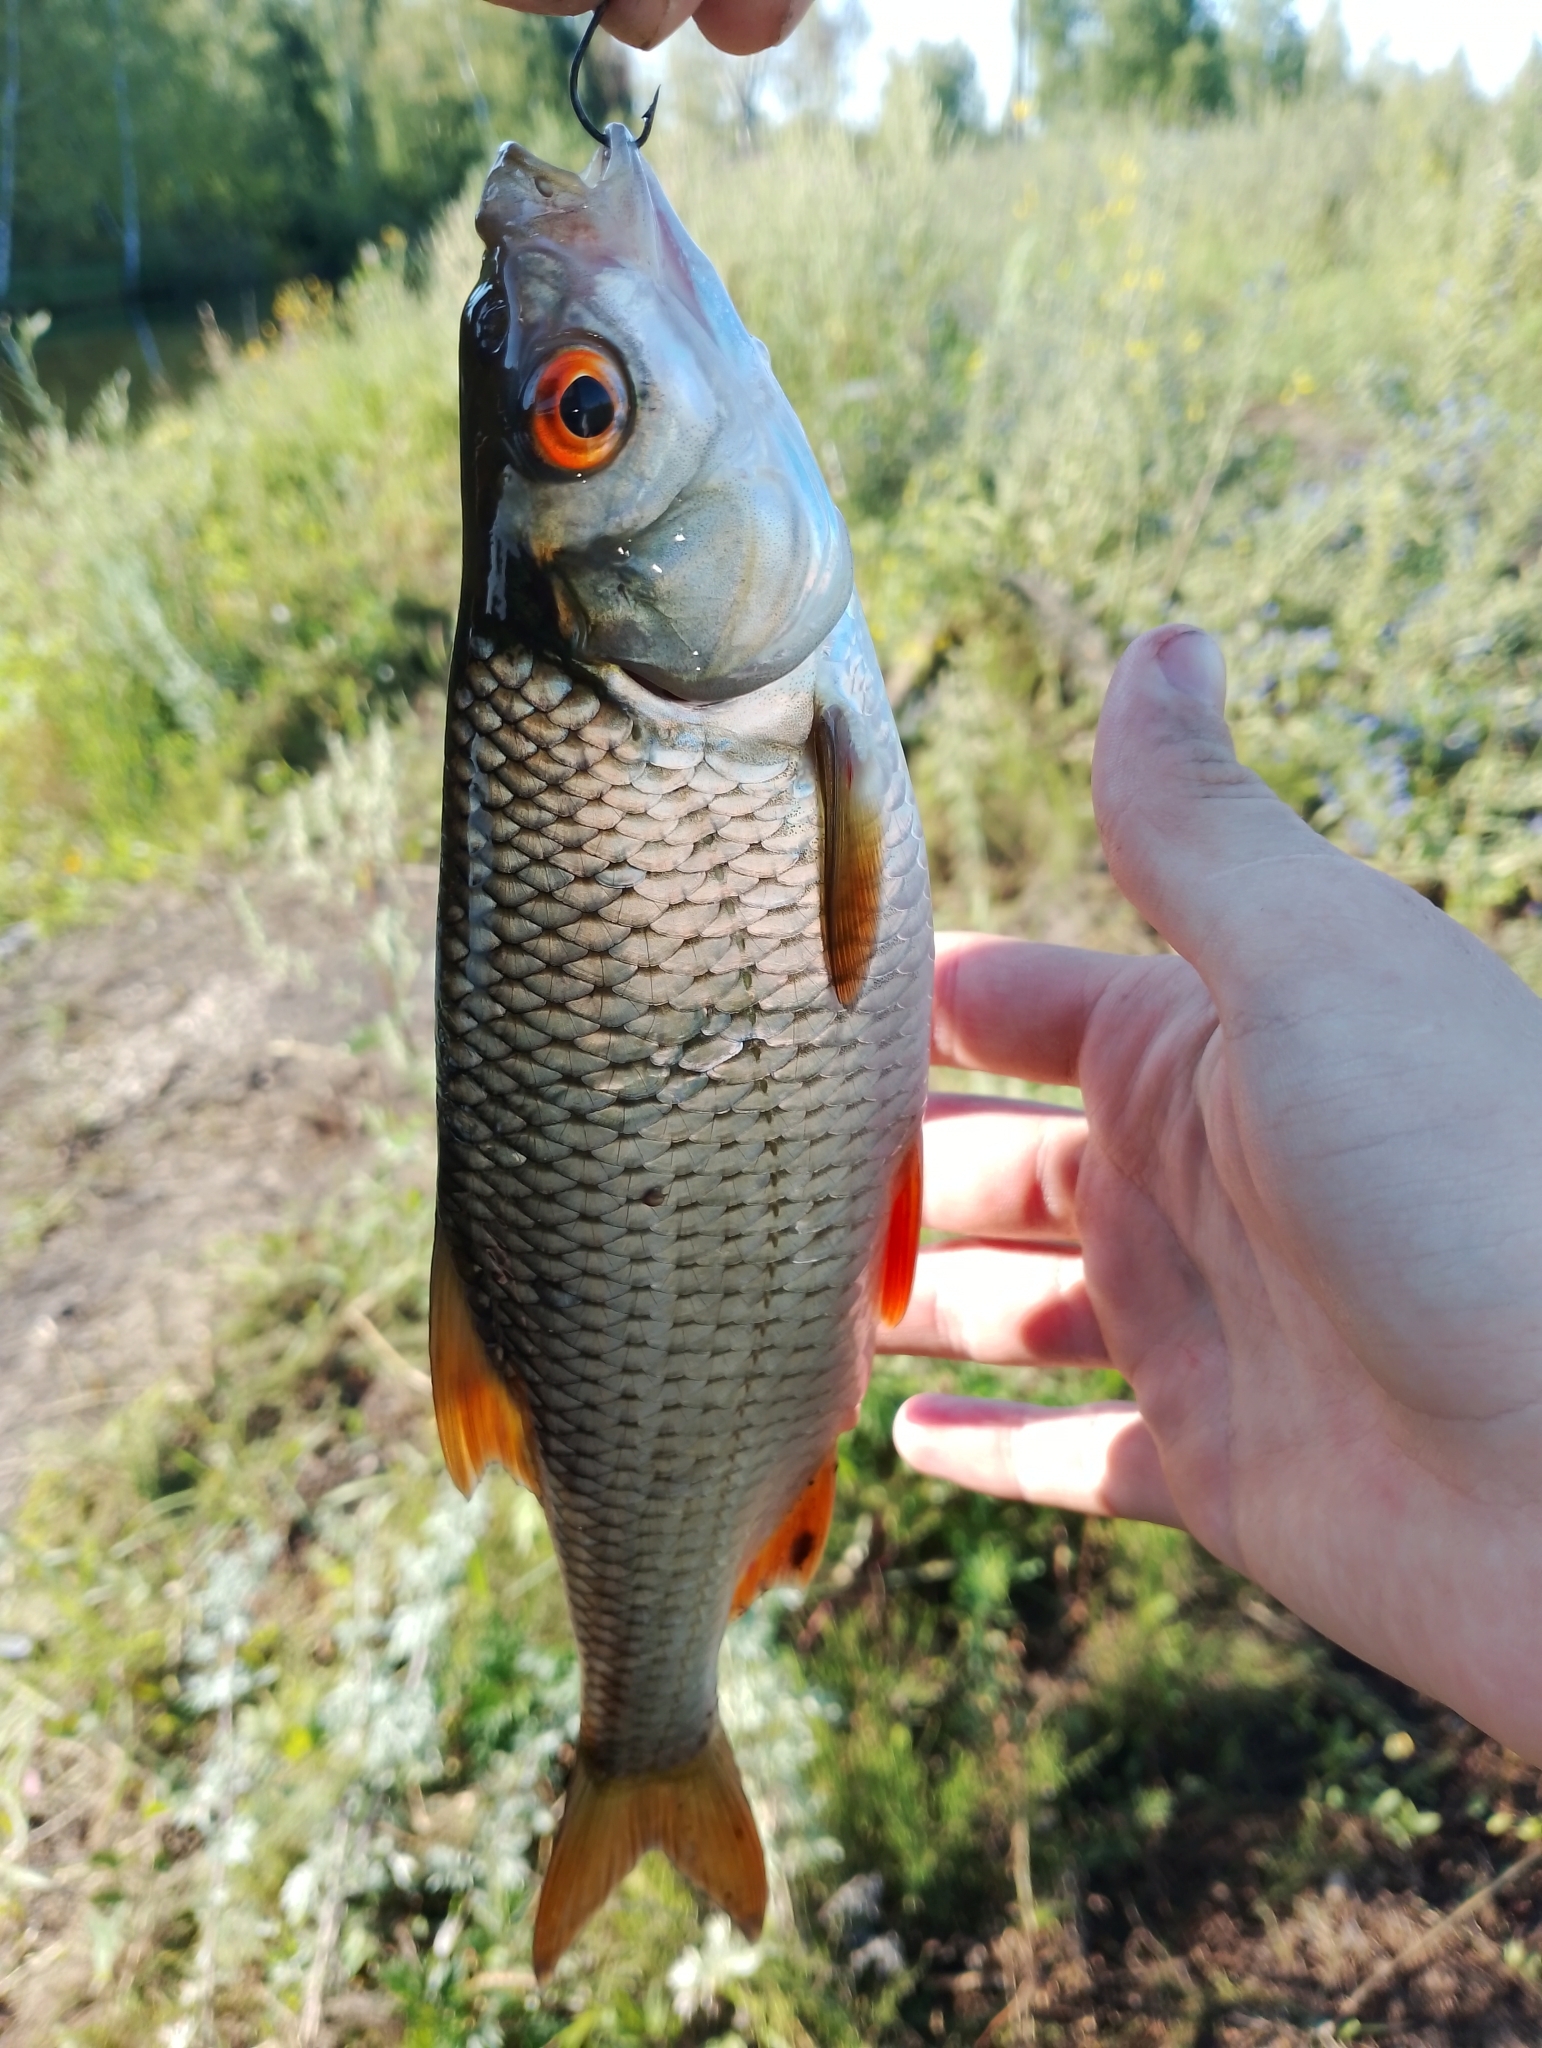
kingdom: Animalia
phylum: Chordata
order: Cypriniformes
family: Cyprinidae
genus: Rutilus
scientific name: Rutilus rutilus
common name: Roach
